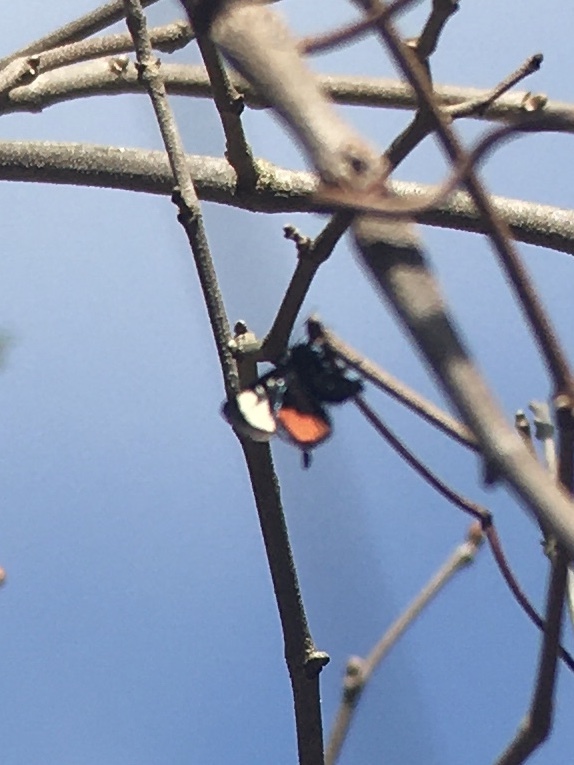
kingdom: Animalia
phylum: Arthropoda
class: Insecta
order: Lepidoptera
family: Noctuidae
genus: Psychomorpha
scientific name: Psychomorpha epimenis
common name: Grapevine epimenis moth
